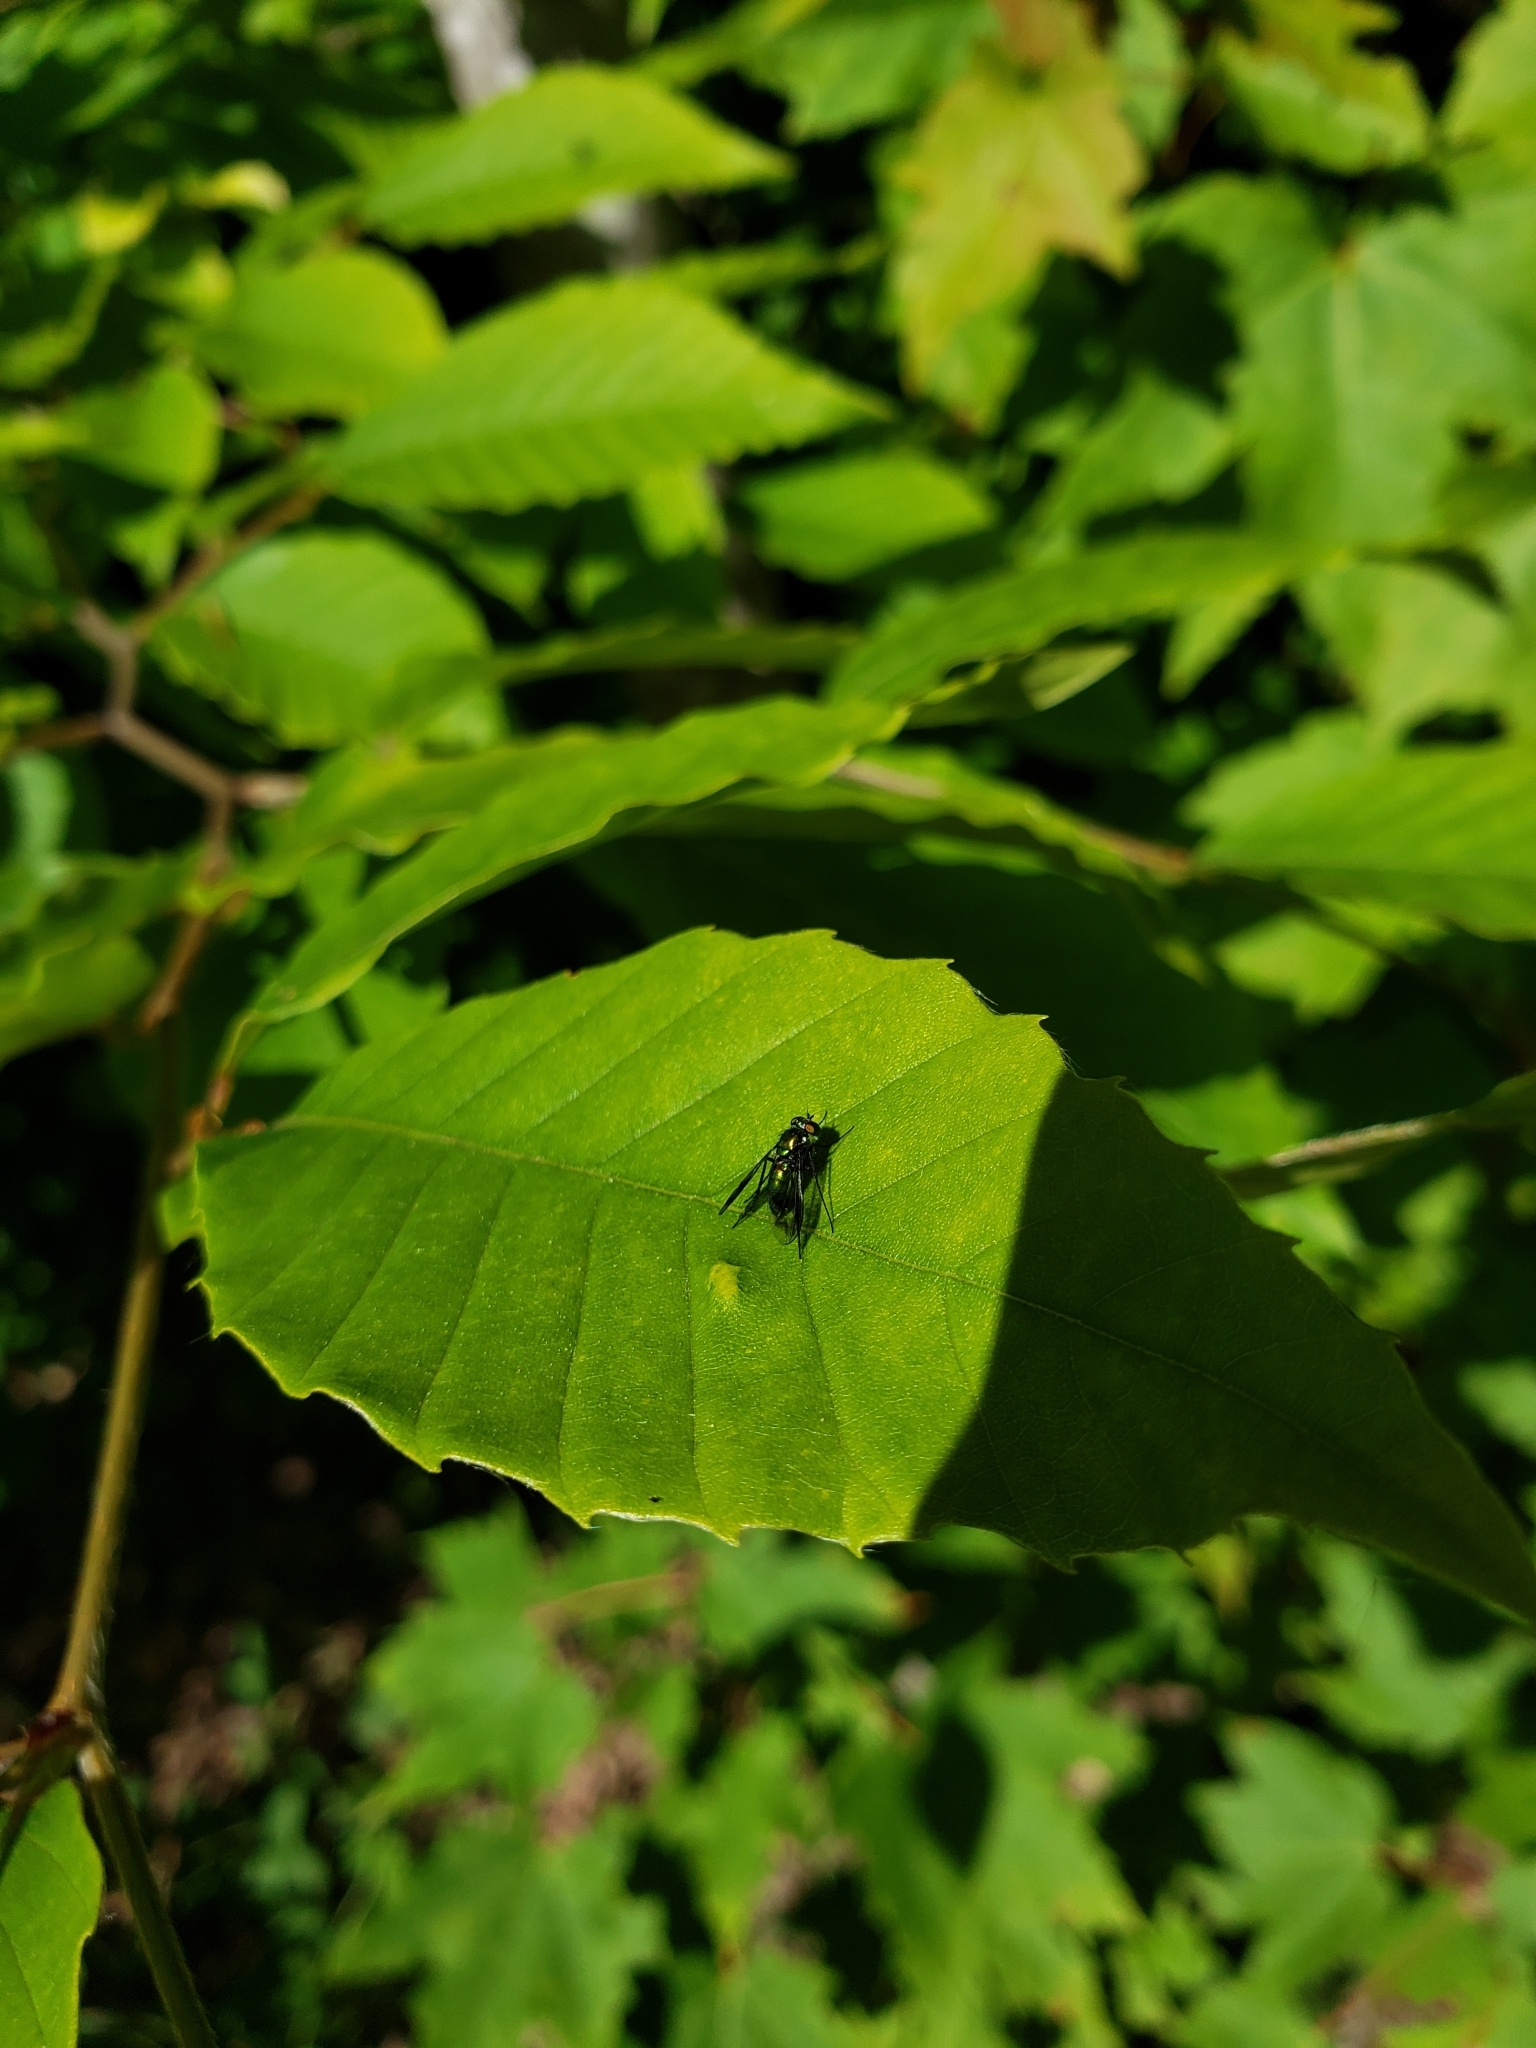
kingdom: Animalia
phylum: Arthropoda
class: Insecta
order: Diptera
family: Dolichopodidae
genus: Condylostylus
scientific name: Condylostylus patibulatus
